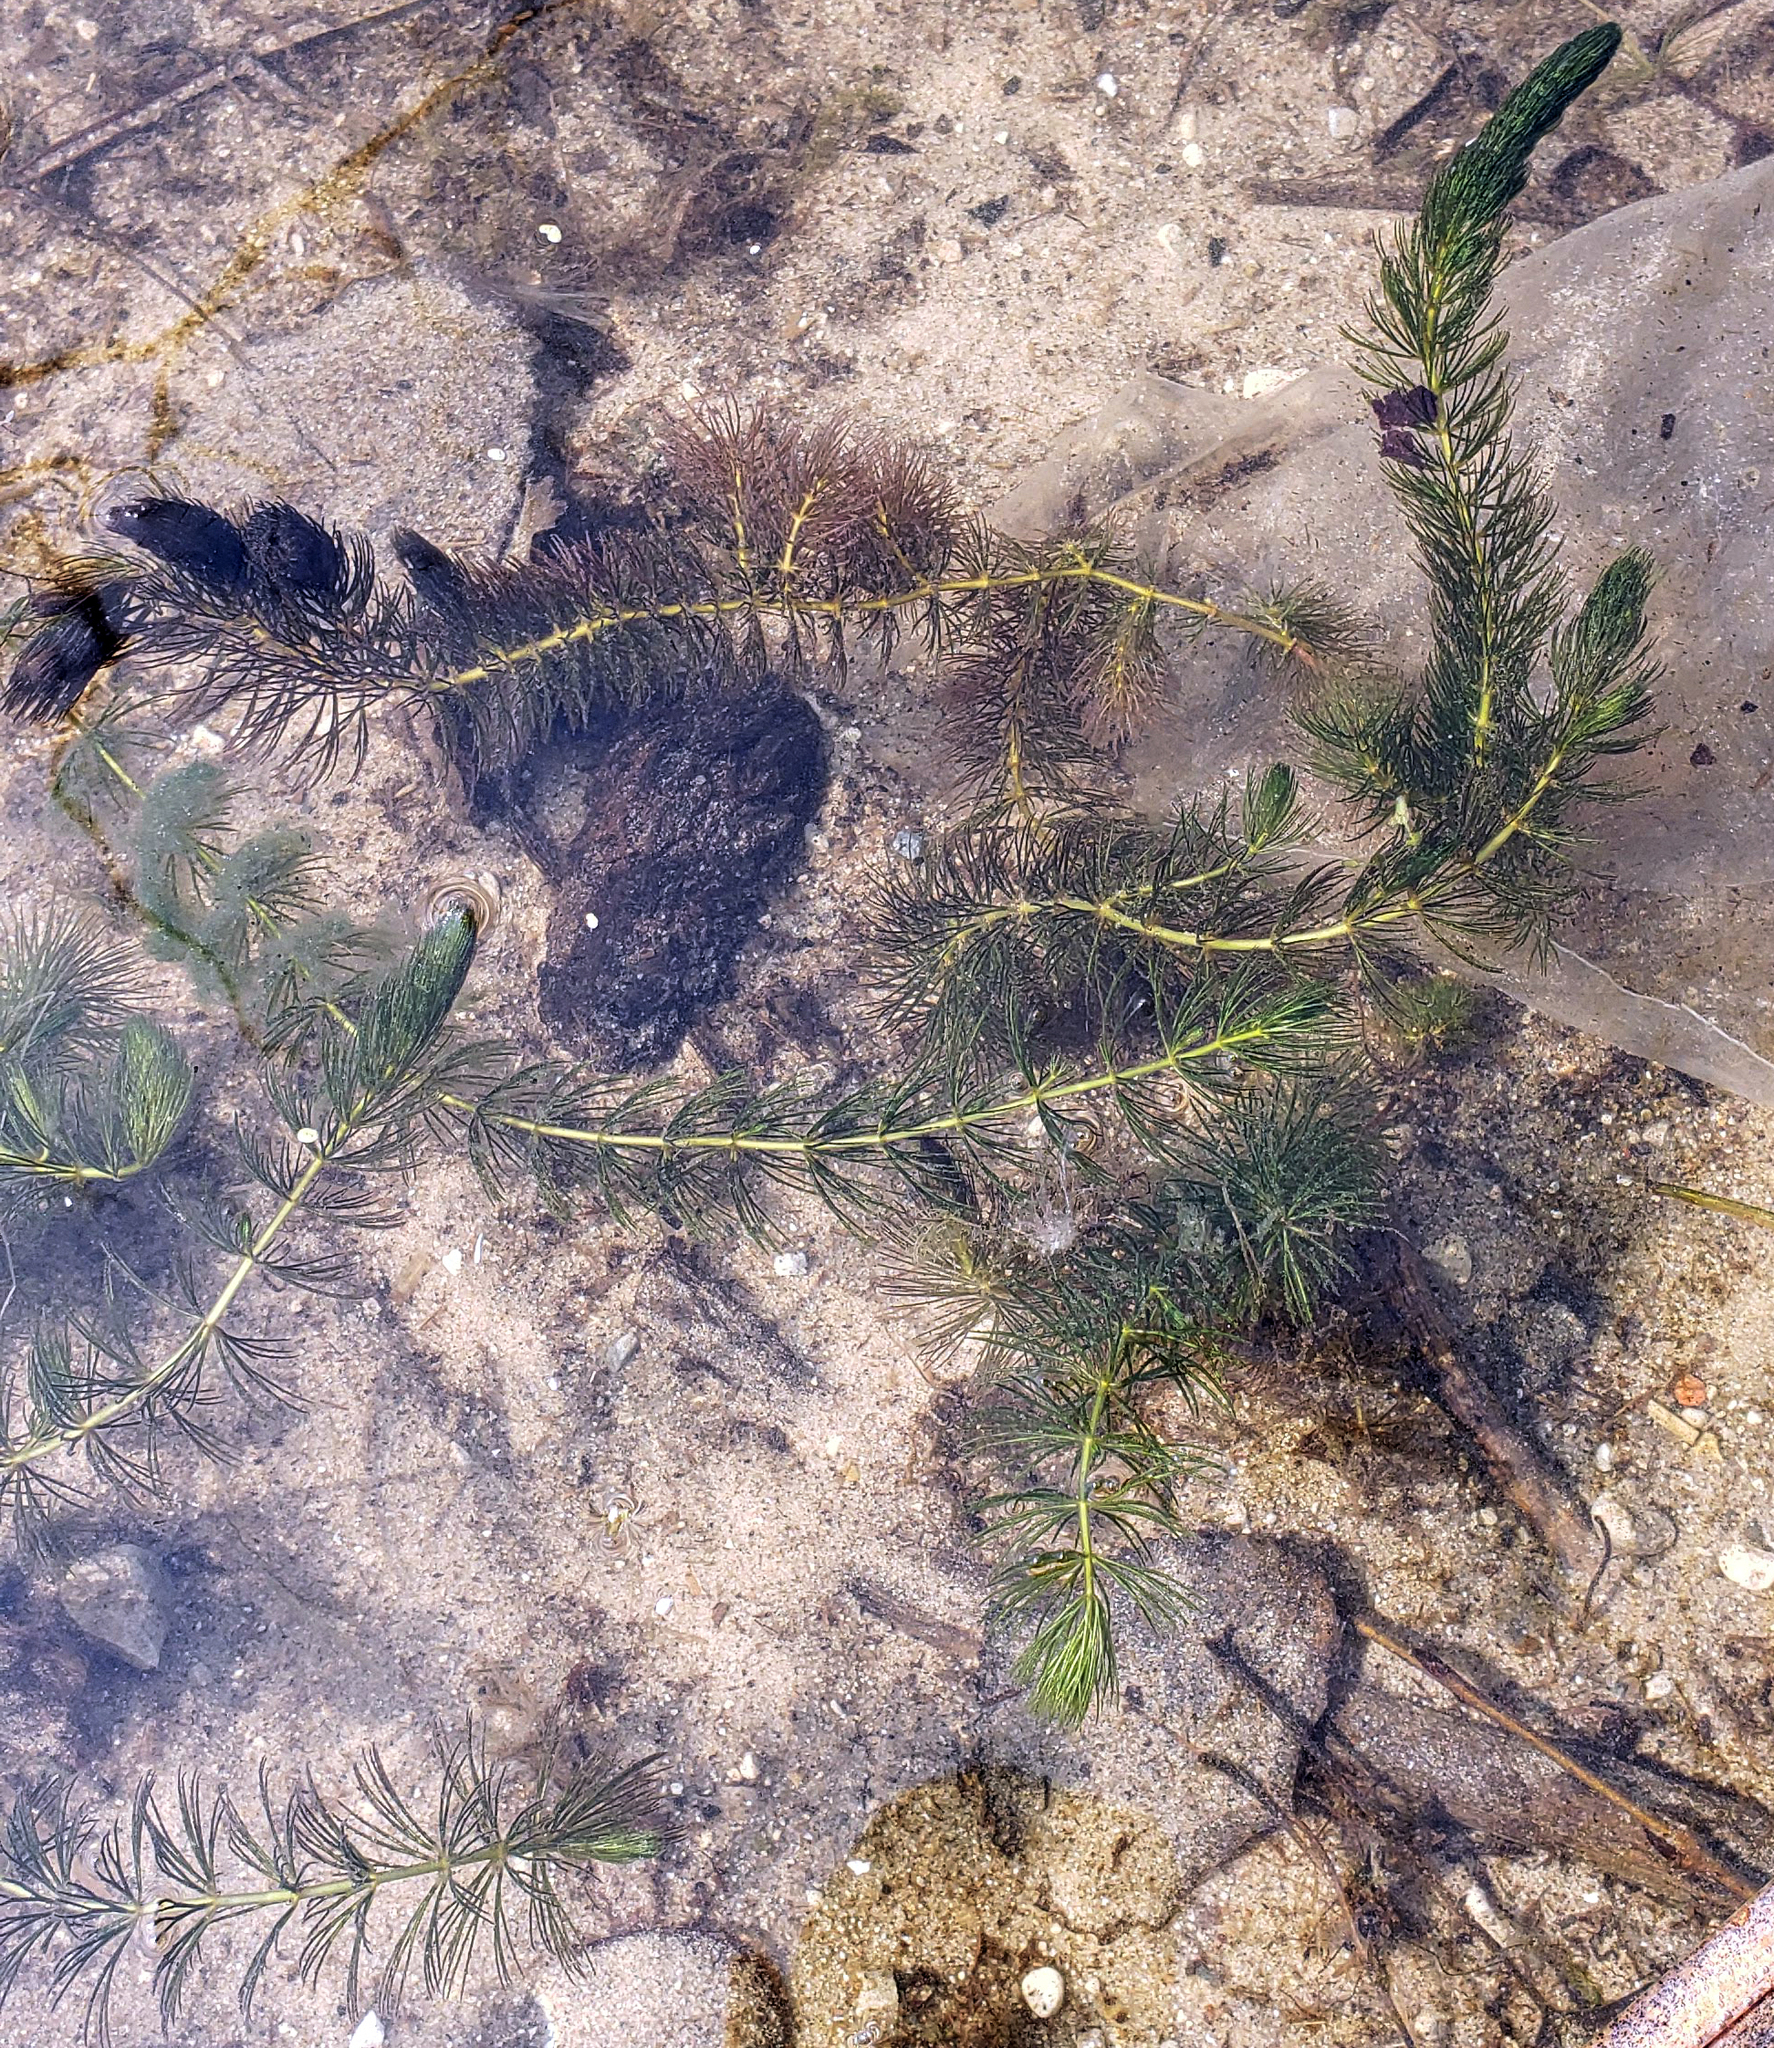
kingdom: Plantae
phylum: Tracheophyta
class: Magnoliopsida
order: Ceratophyllales
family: Ceratophyllaceae
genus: Ceratophyllum
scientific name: Ceratophyllum demersum
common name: Rigid hornwort
